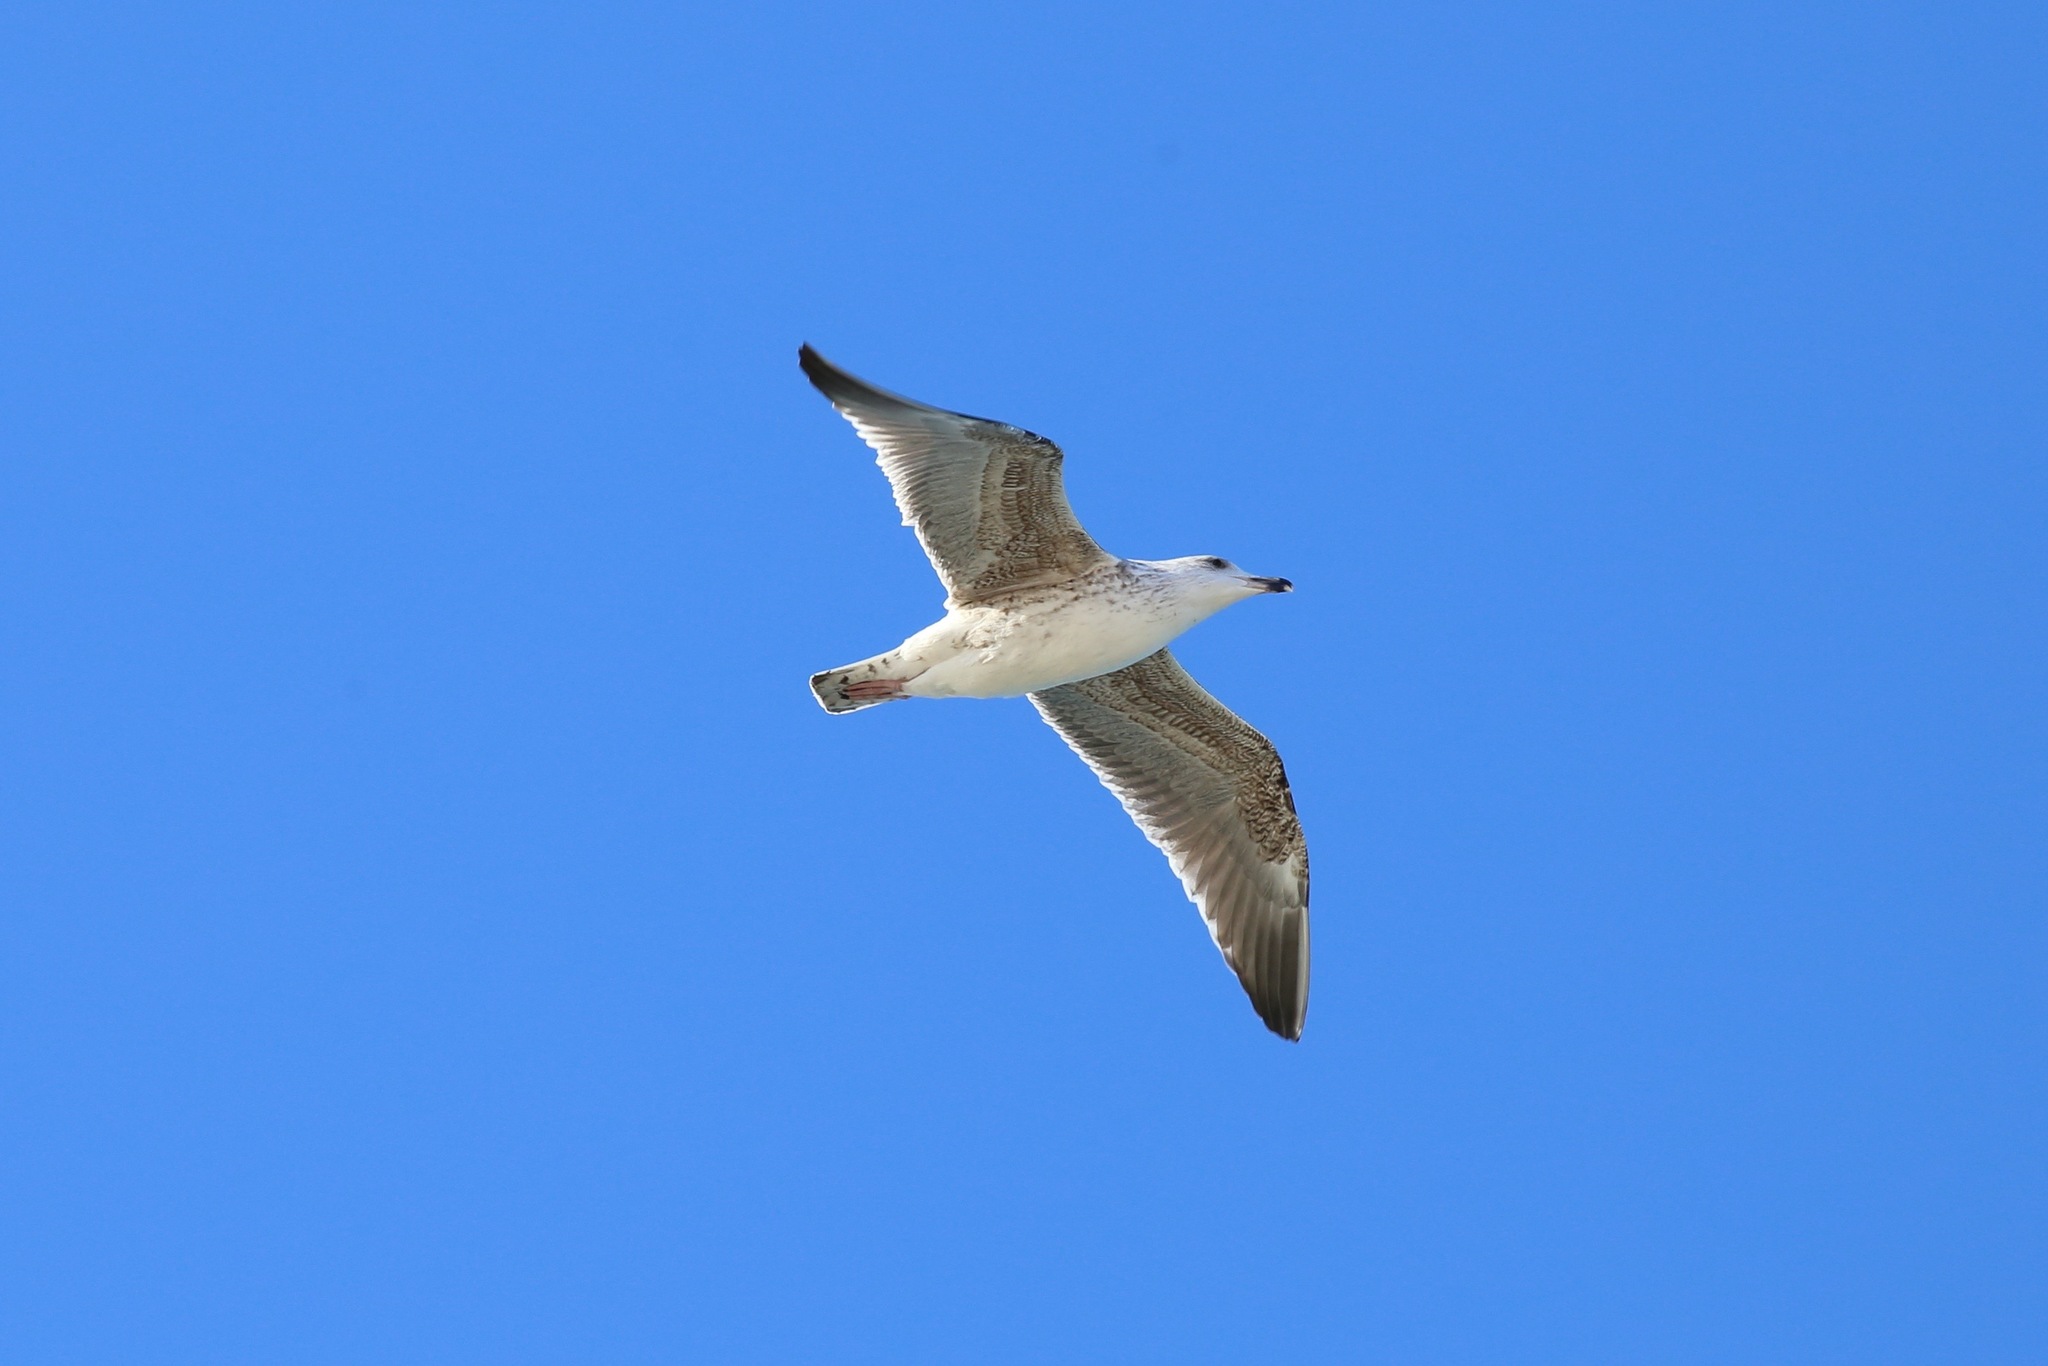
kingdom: Animalia
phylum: Chordata
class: Aves
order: Charadriiformes
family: Laridae
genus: Larus
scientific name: Larus marinus
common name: Great black-backed gull
